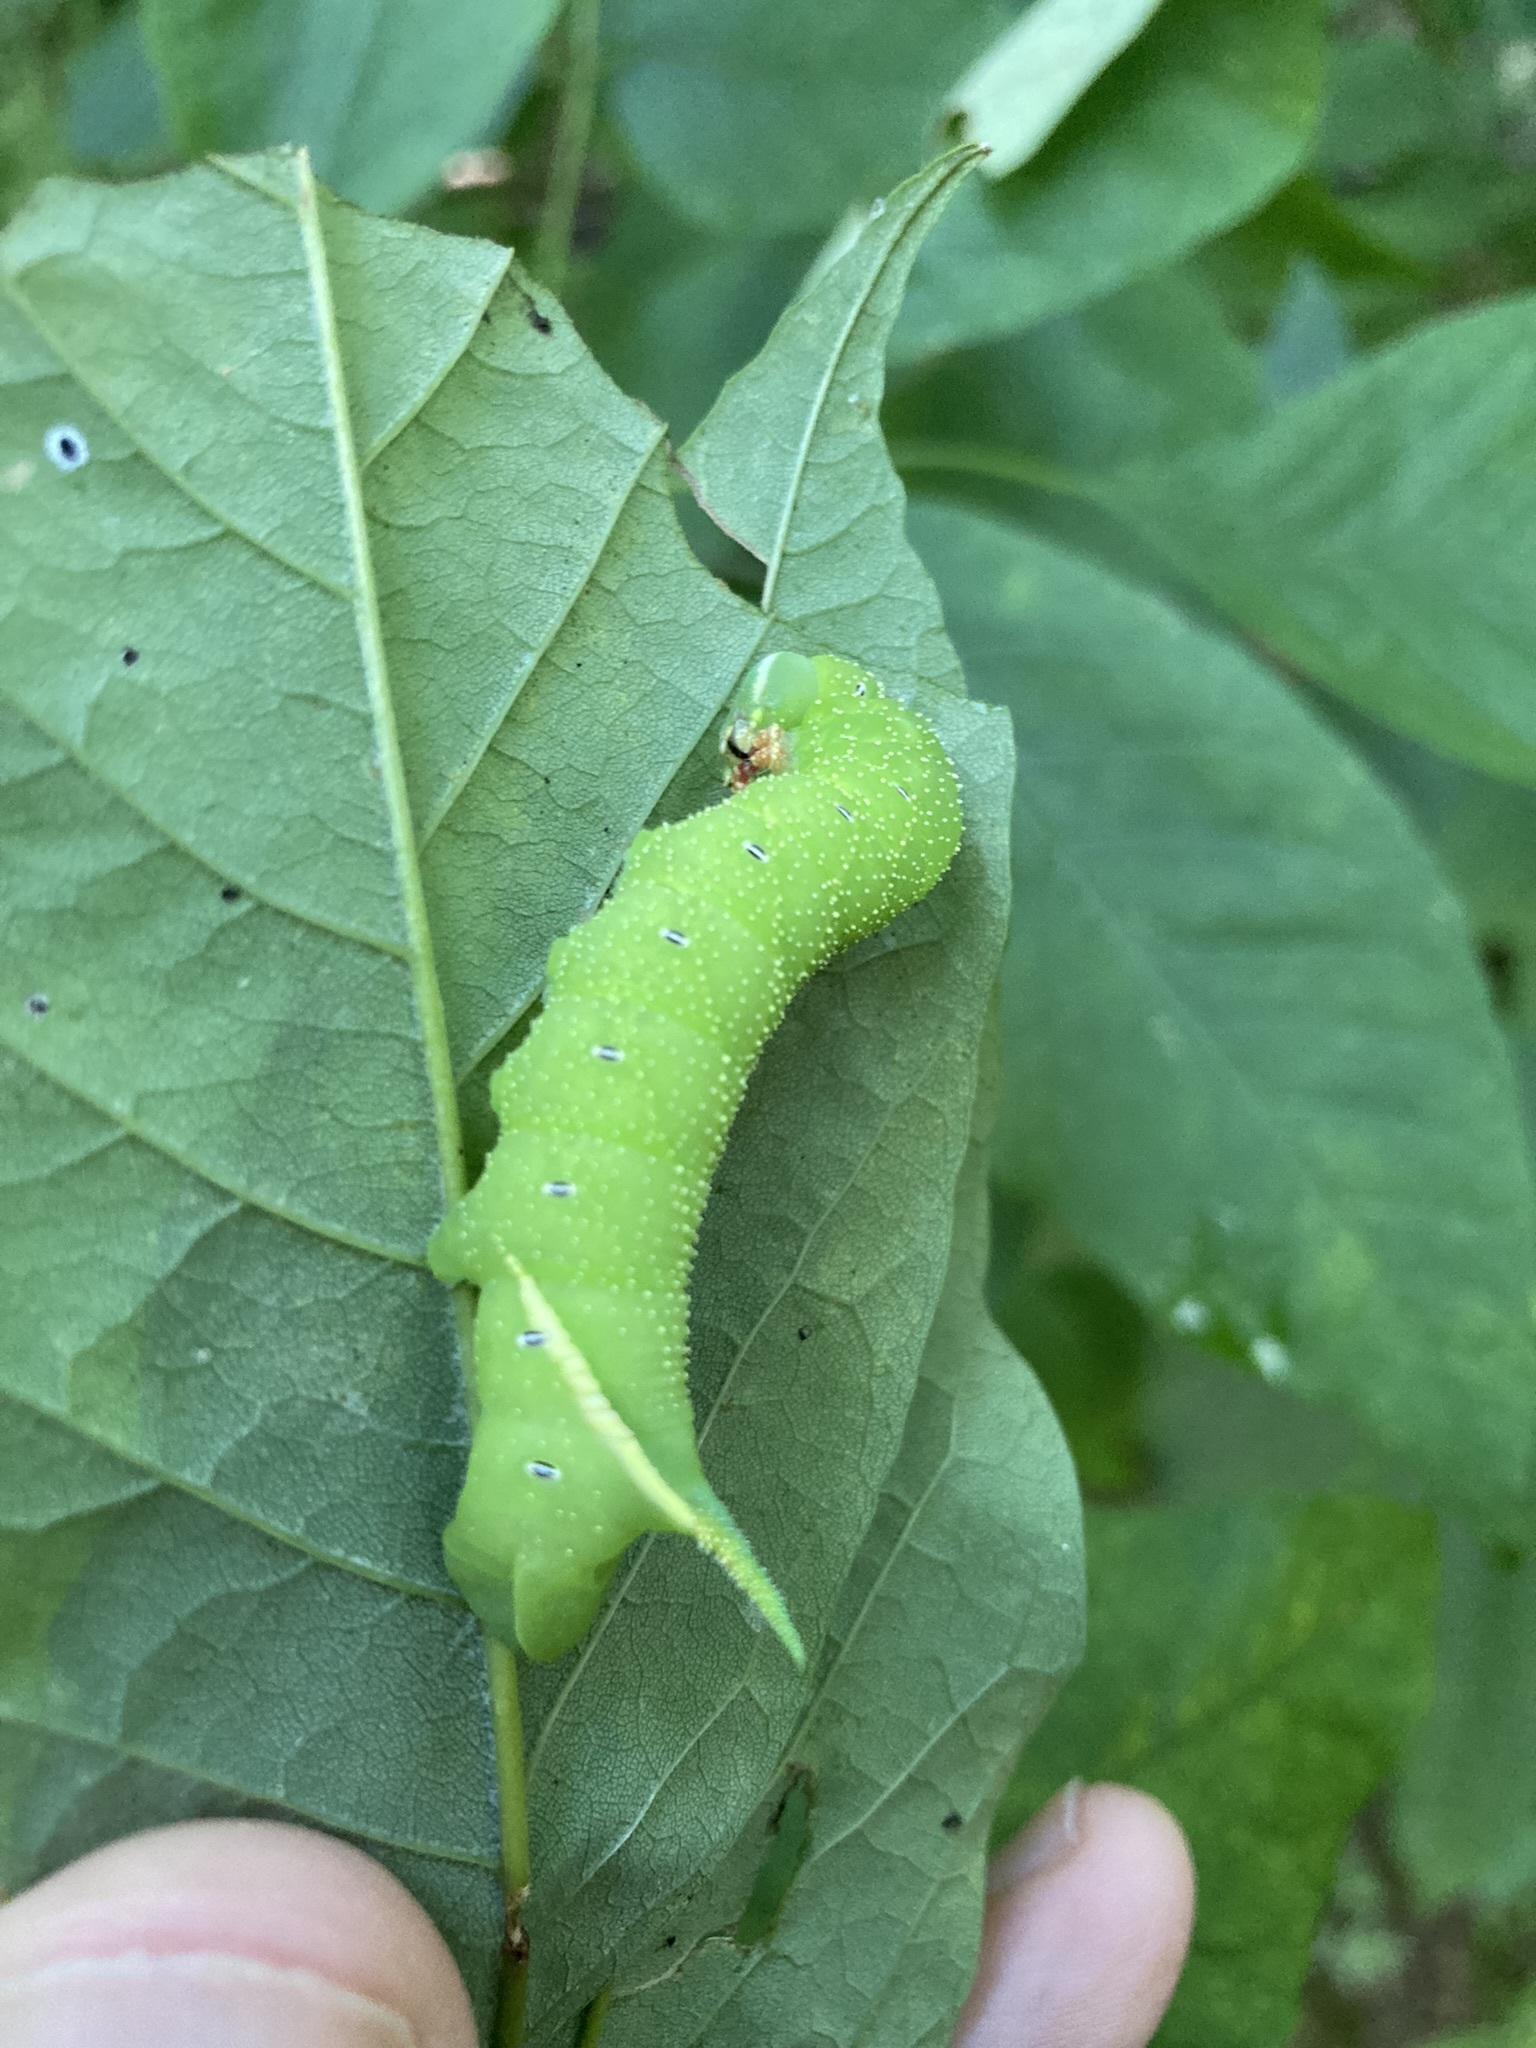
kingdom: Animalia
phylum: Arthropoda
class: Insecta
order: Lepidoptera
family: Sphingidae
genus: Manduca
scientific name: Manduca jasminearum
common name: Ash sphinx
